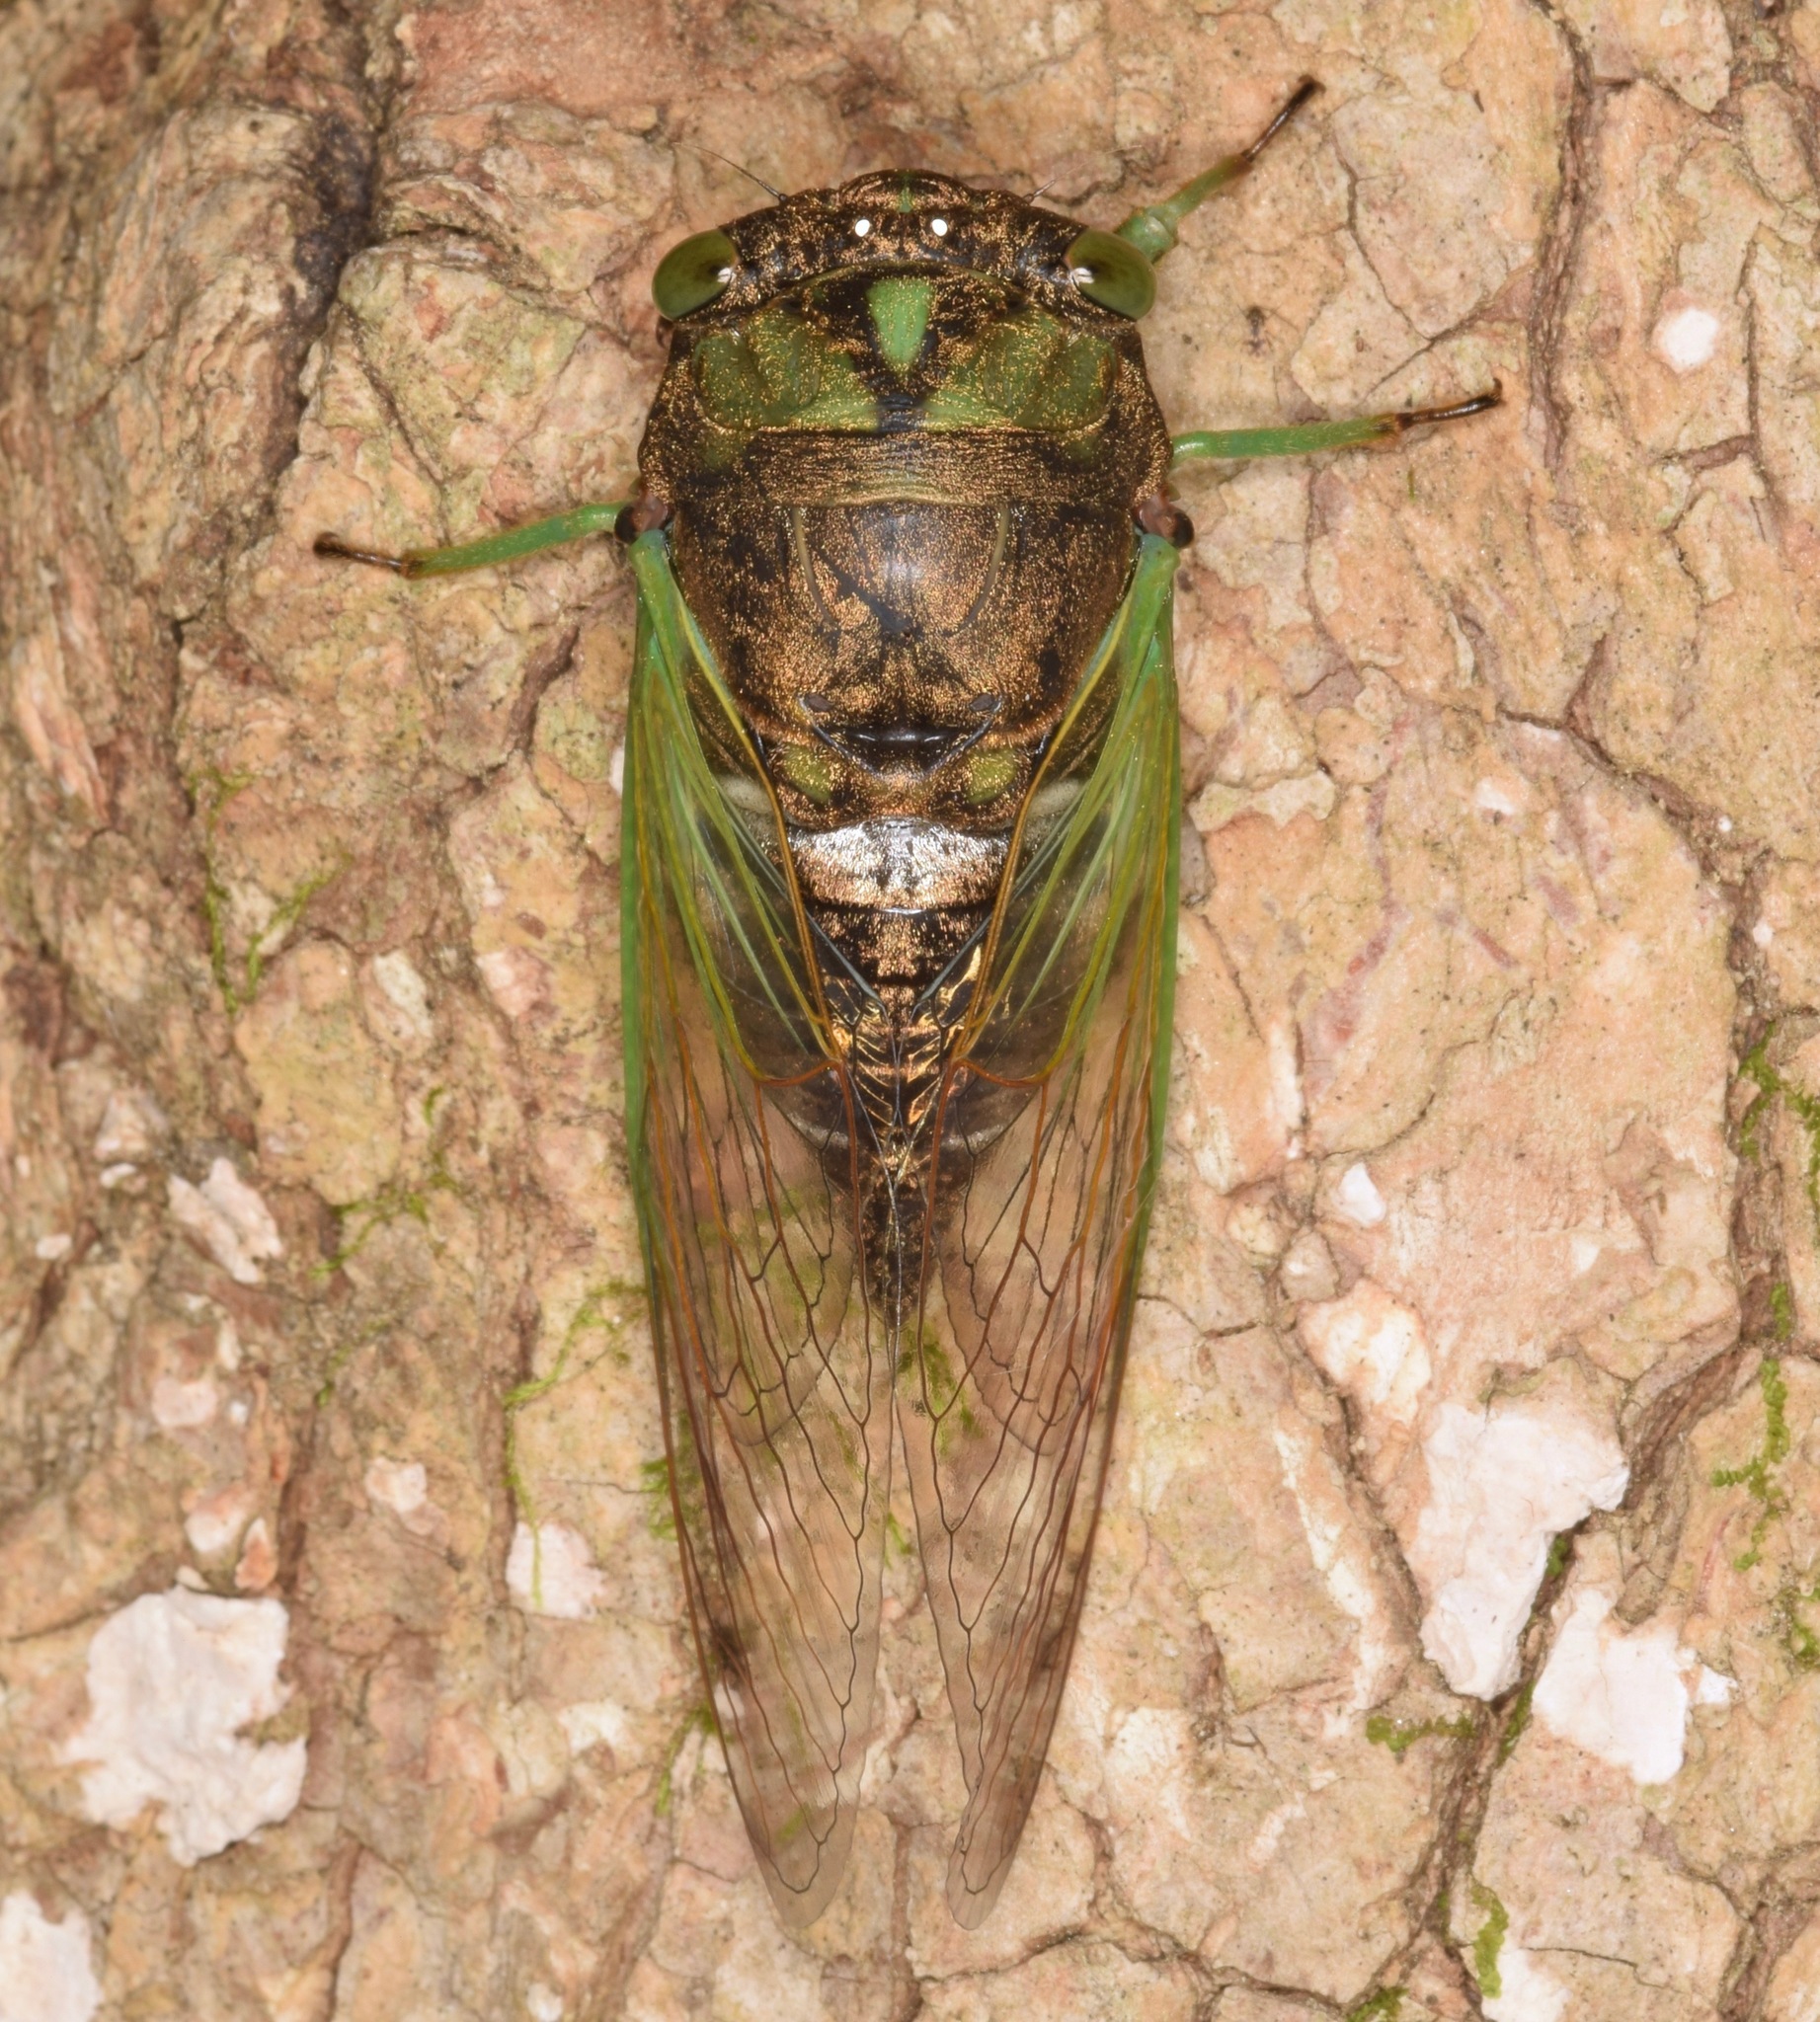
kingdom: Animalia
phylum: Arthropoda
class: Insecta
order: Hemiptera
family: Cicadidae
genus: Neotibicen
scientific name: Neotibicen tibicen
